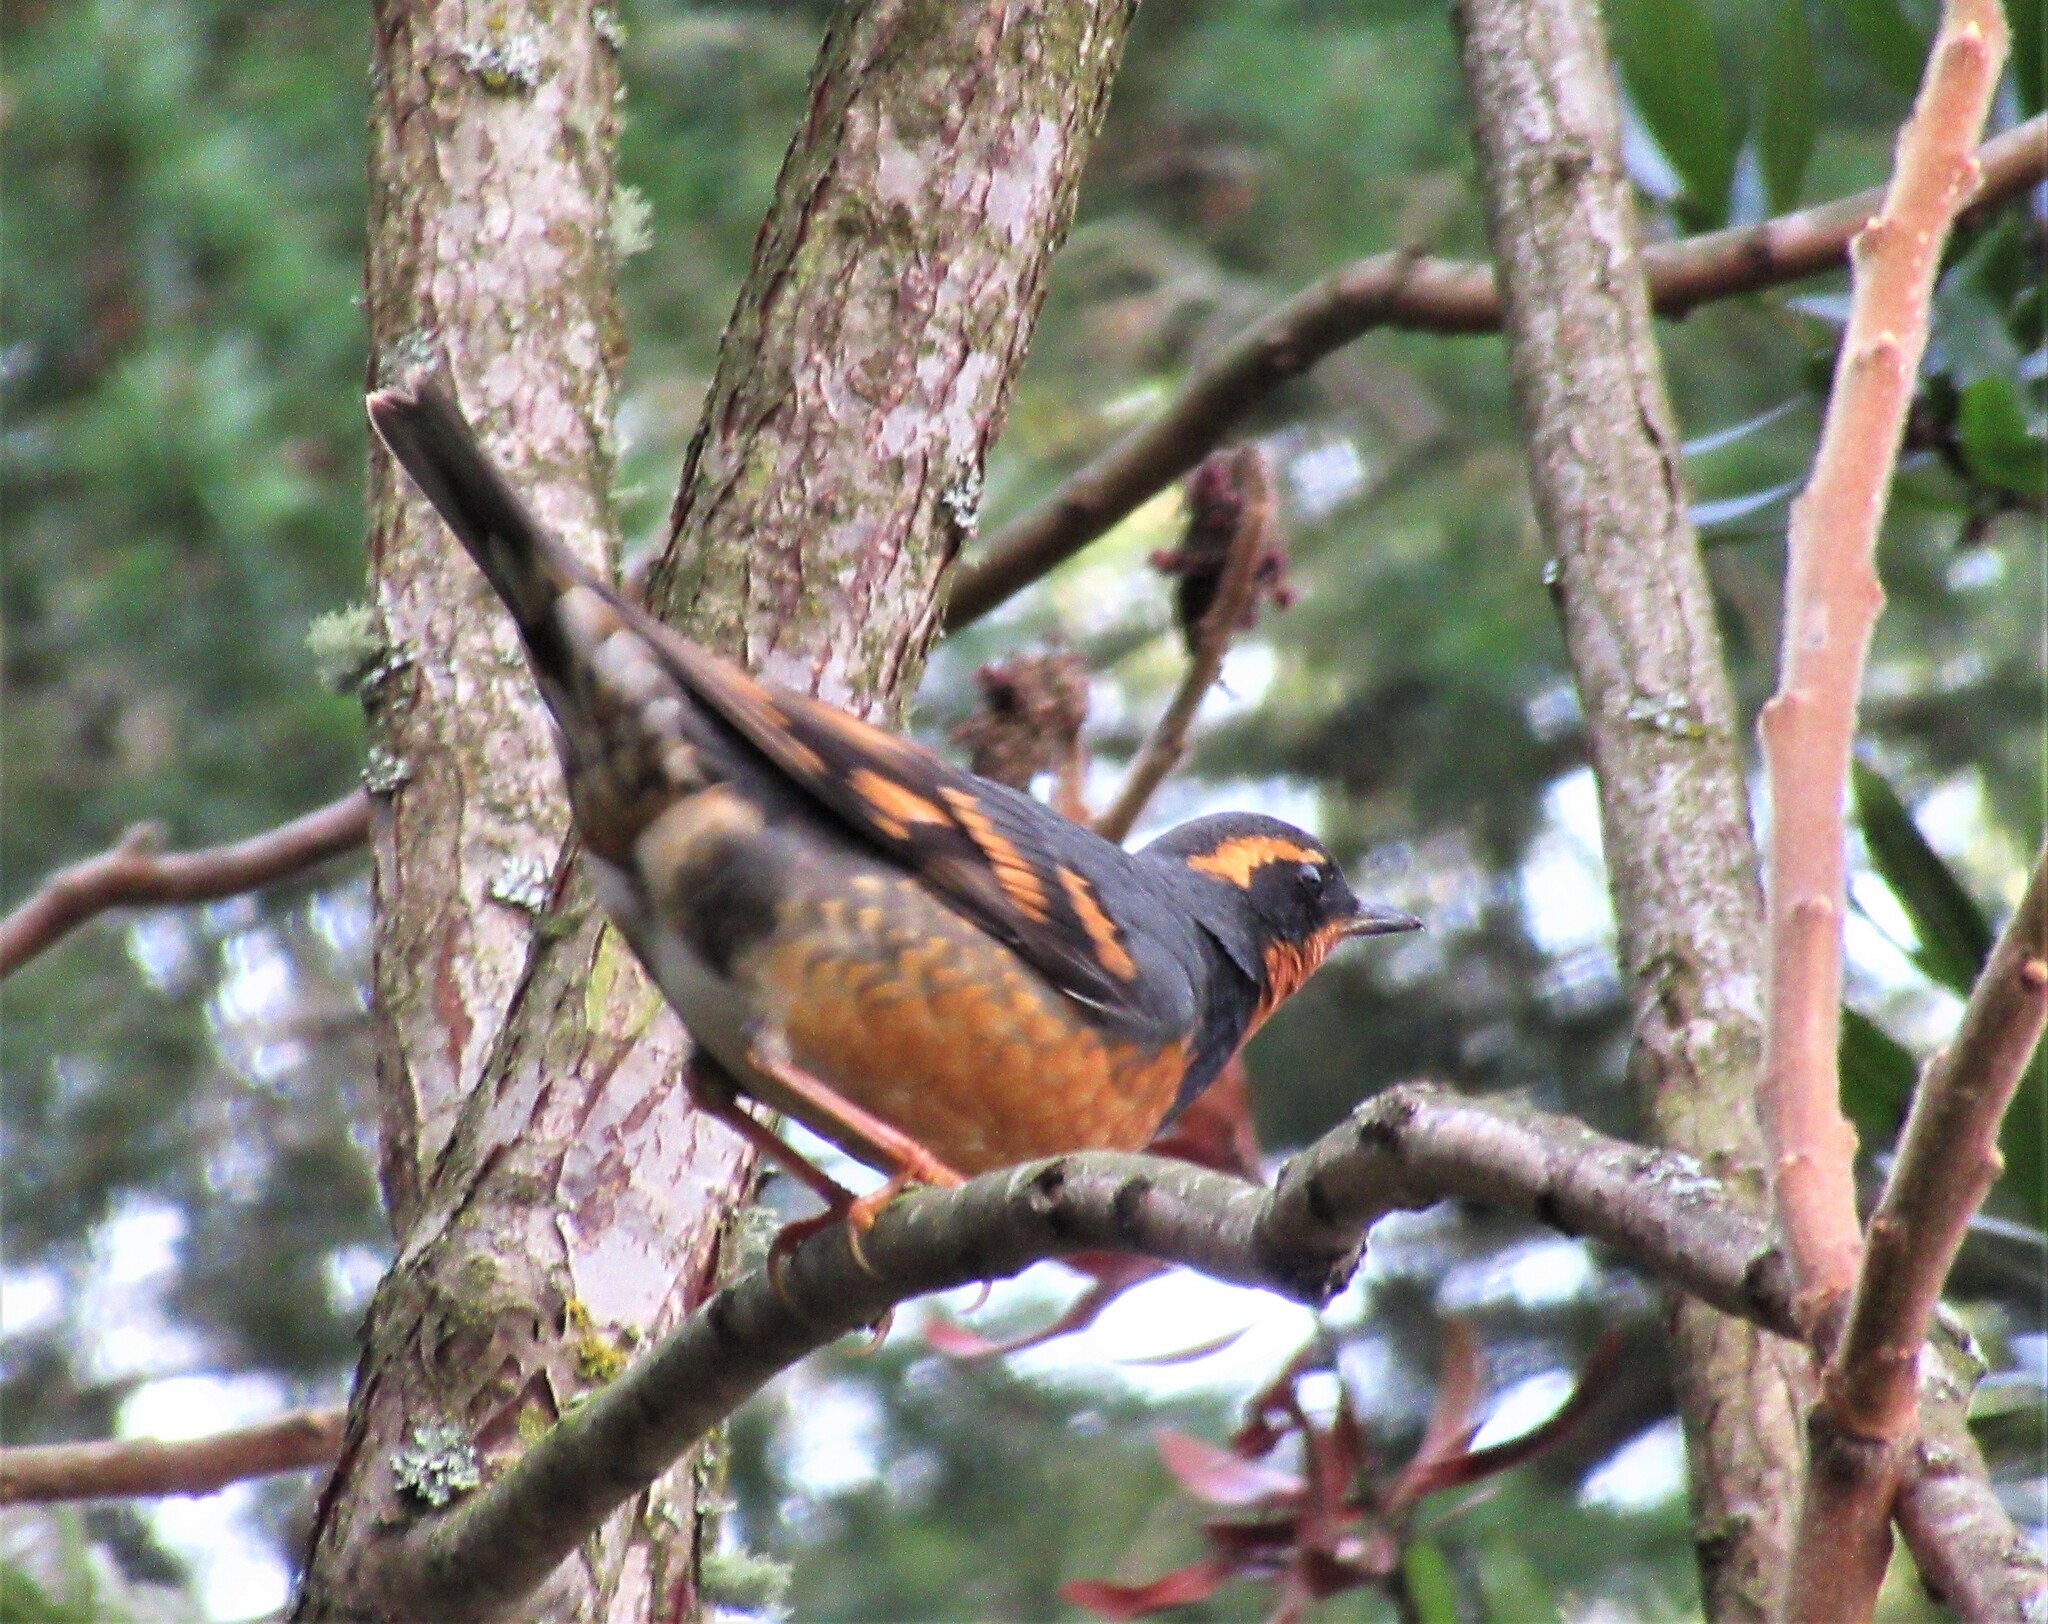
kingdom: Animalia
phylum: Chordata
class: Aves
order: Passeriformes
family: Turdidae
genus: Ixoreus
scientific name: Ixoreus naevius
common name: Varied thrush
